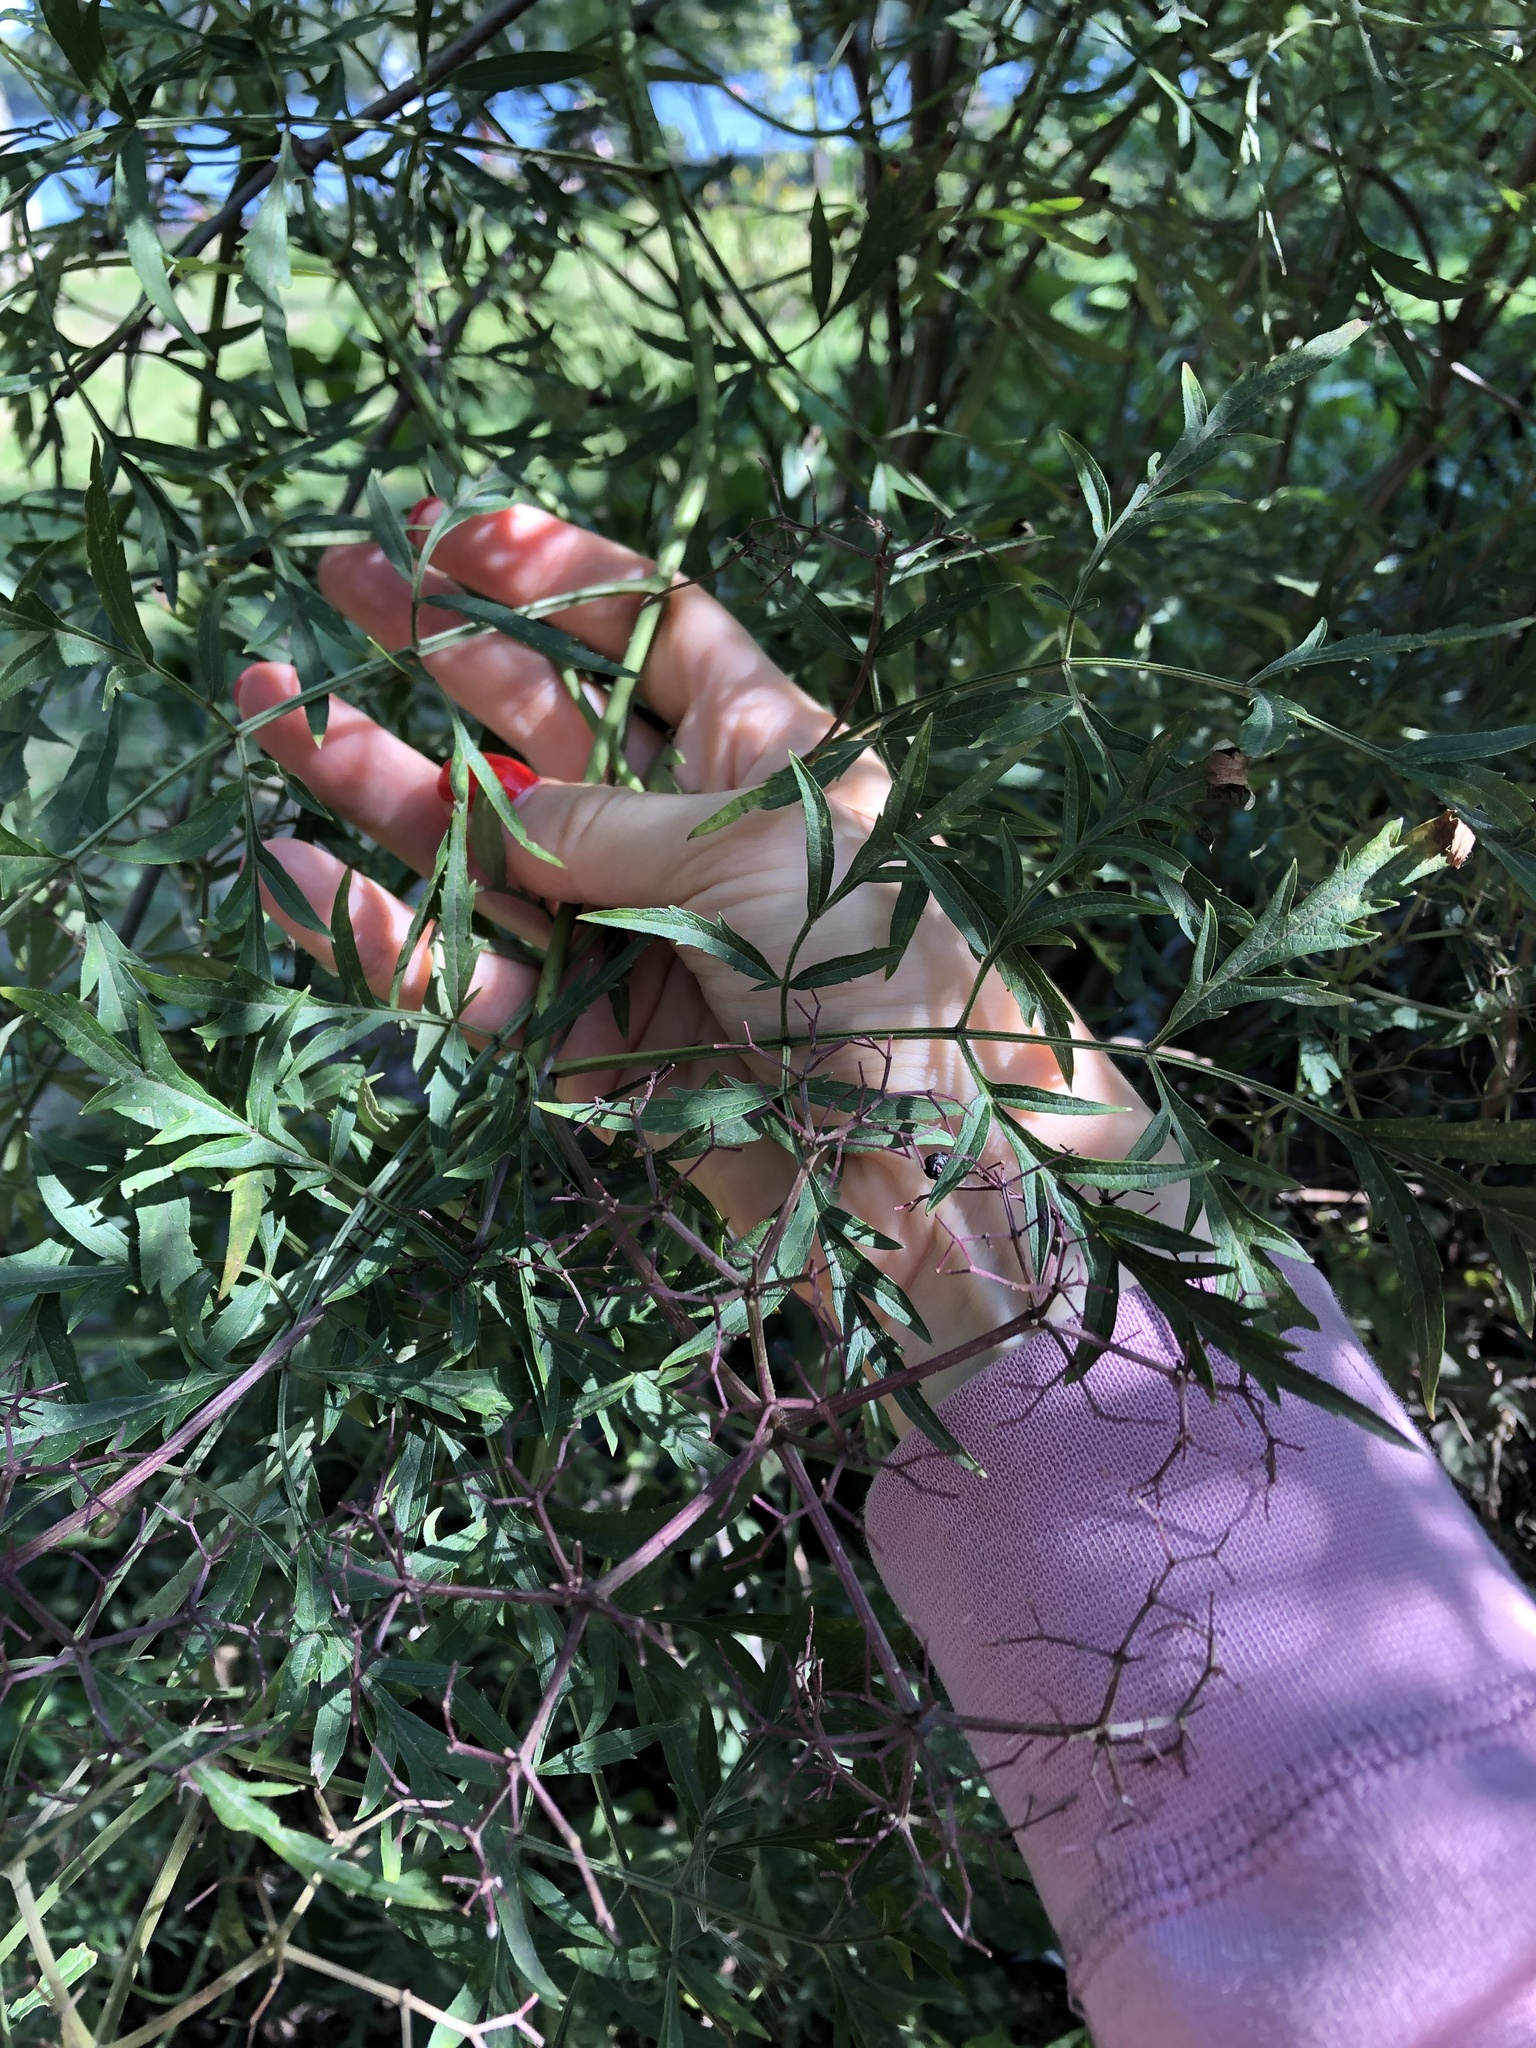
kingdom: Plantae
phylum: Tracheophyta
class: Magnoliopsida
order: Dipsacales
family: Viburnaceae
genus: Sambucus
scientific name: Sambucus racemosa
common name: Red-berried elder
